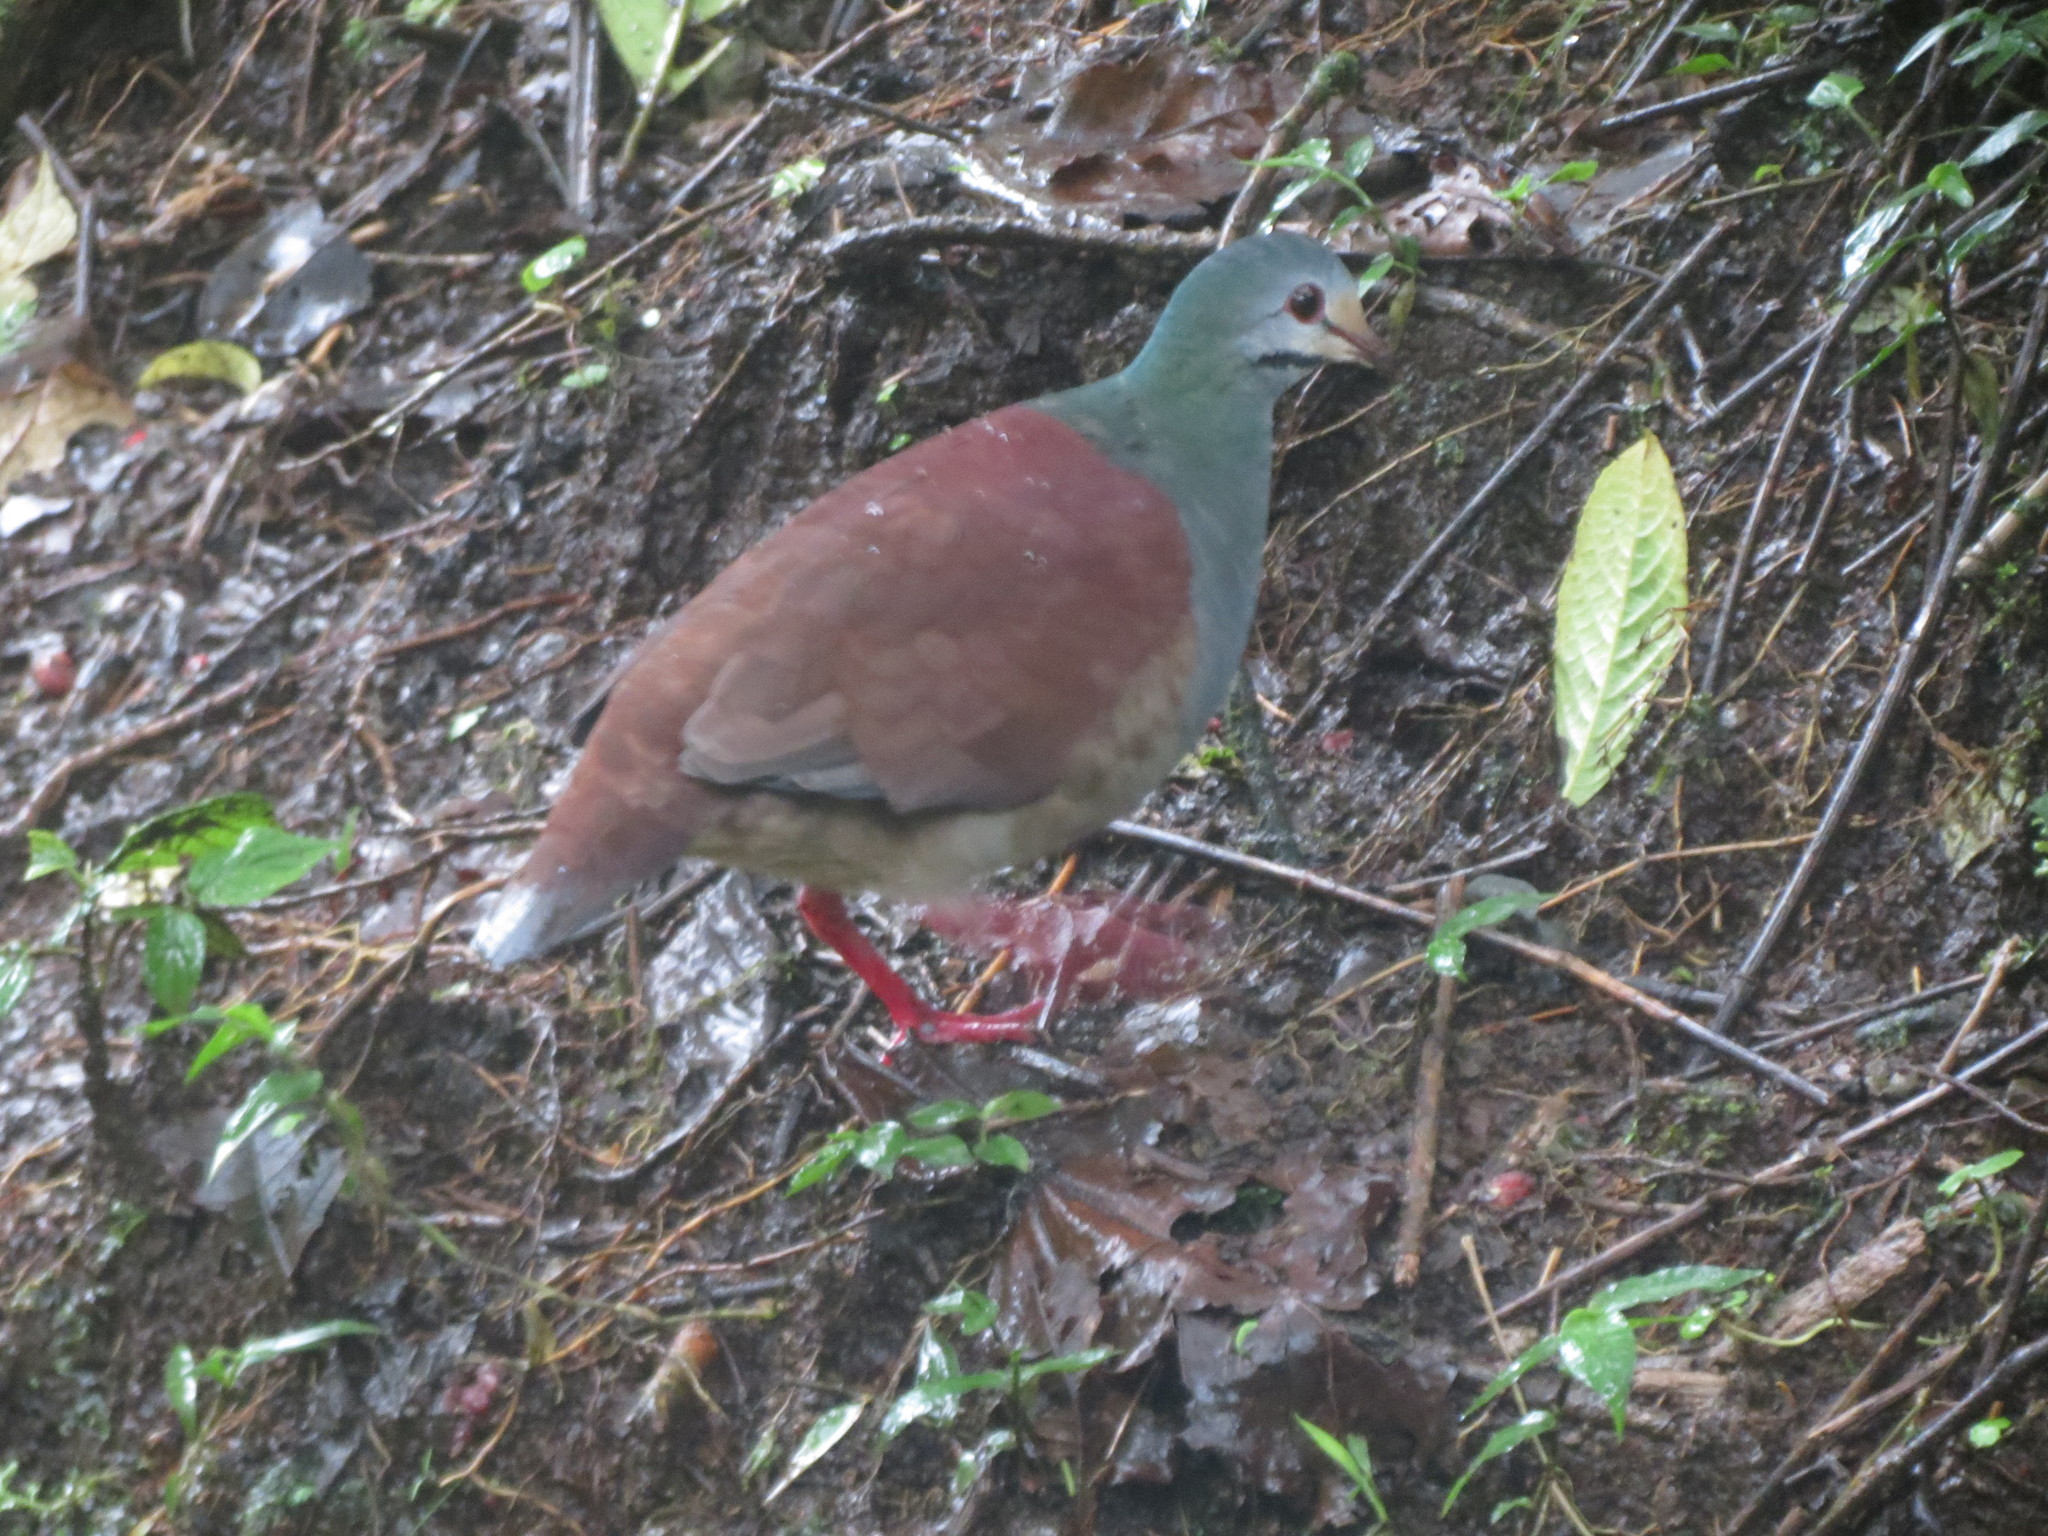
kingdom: Animalia
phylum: Chordata
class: Aves
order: Columbiformes
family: Columbidae
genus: Zentrygon
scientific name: Zentrygon costaricensis
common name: Buff-fronted quail-dove
